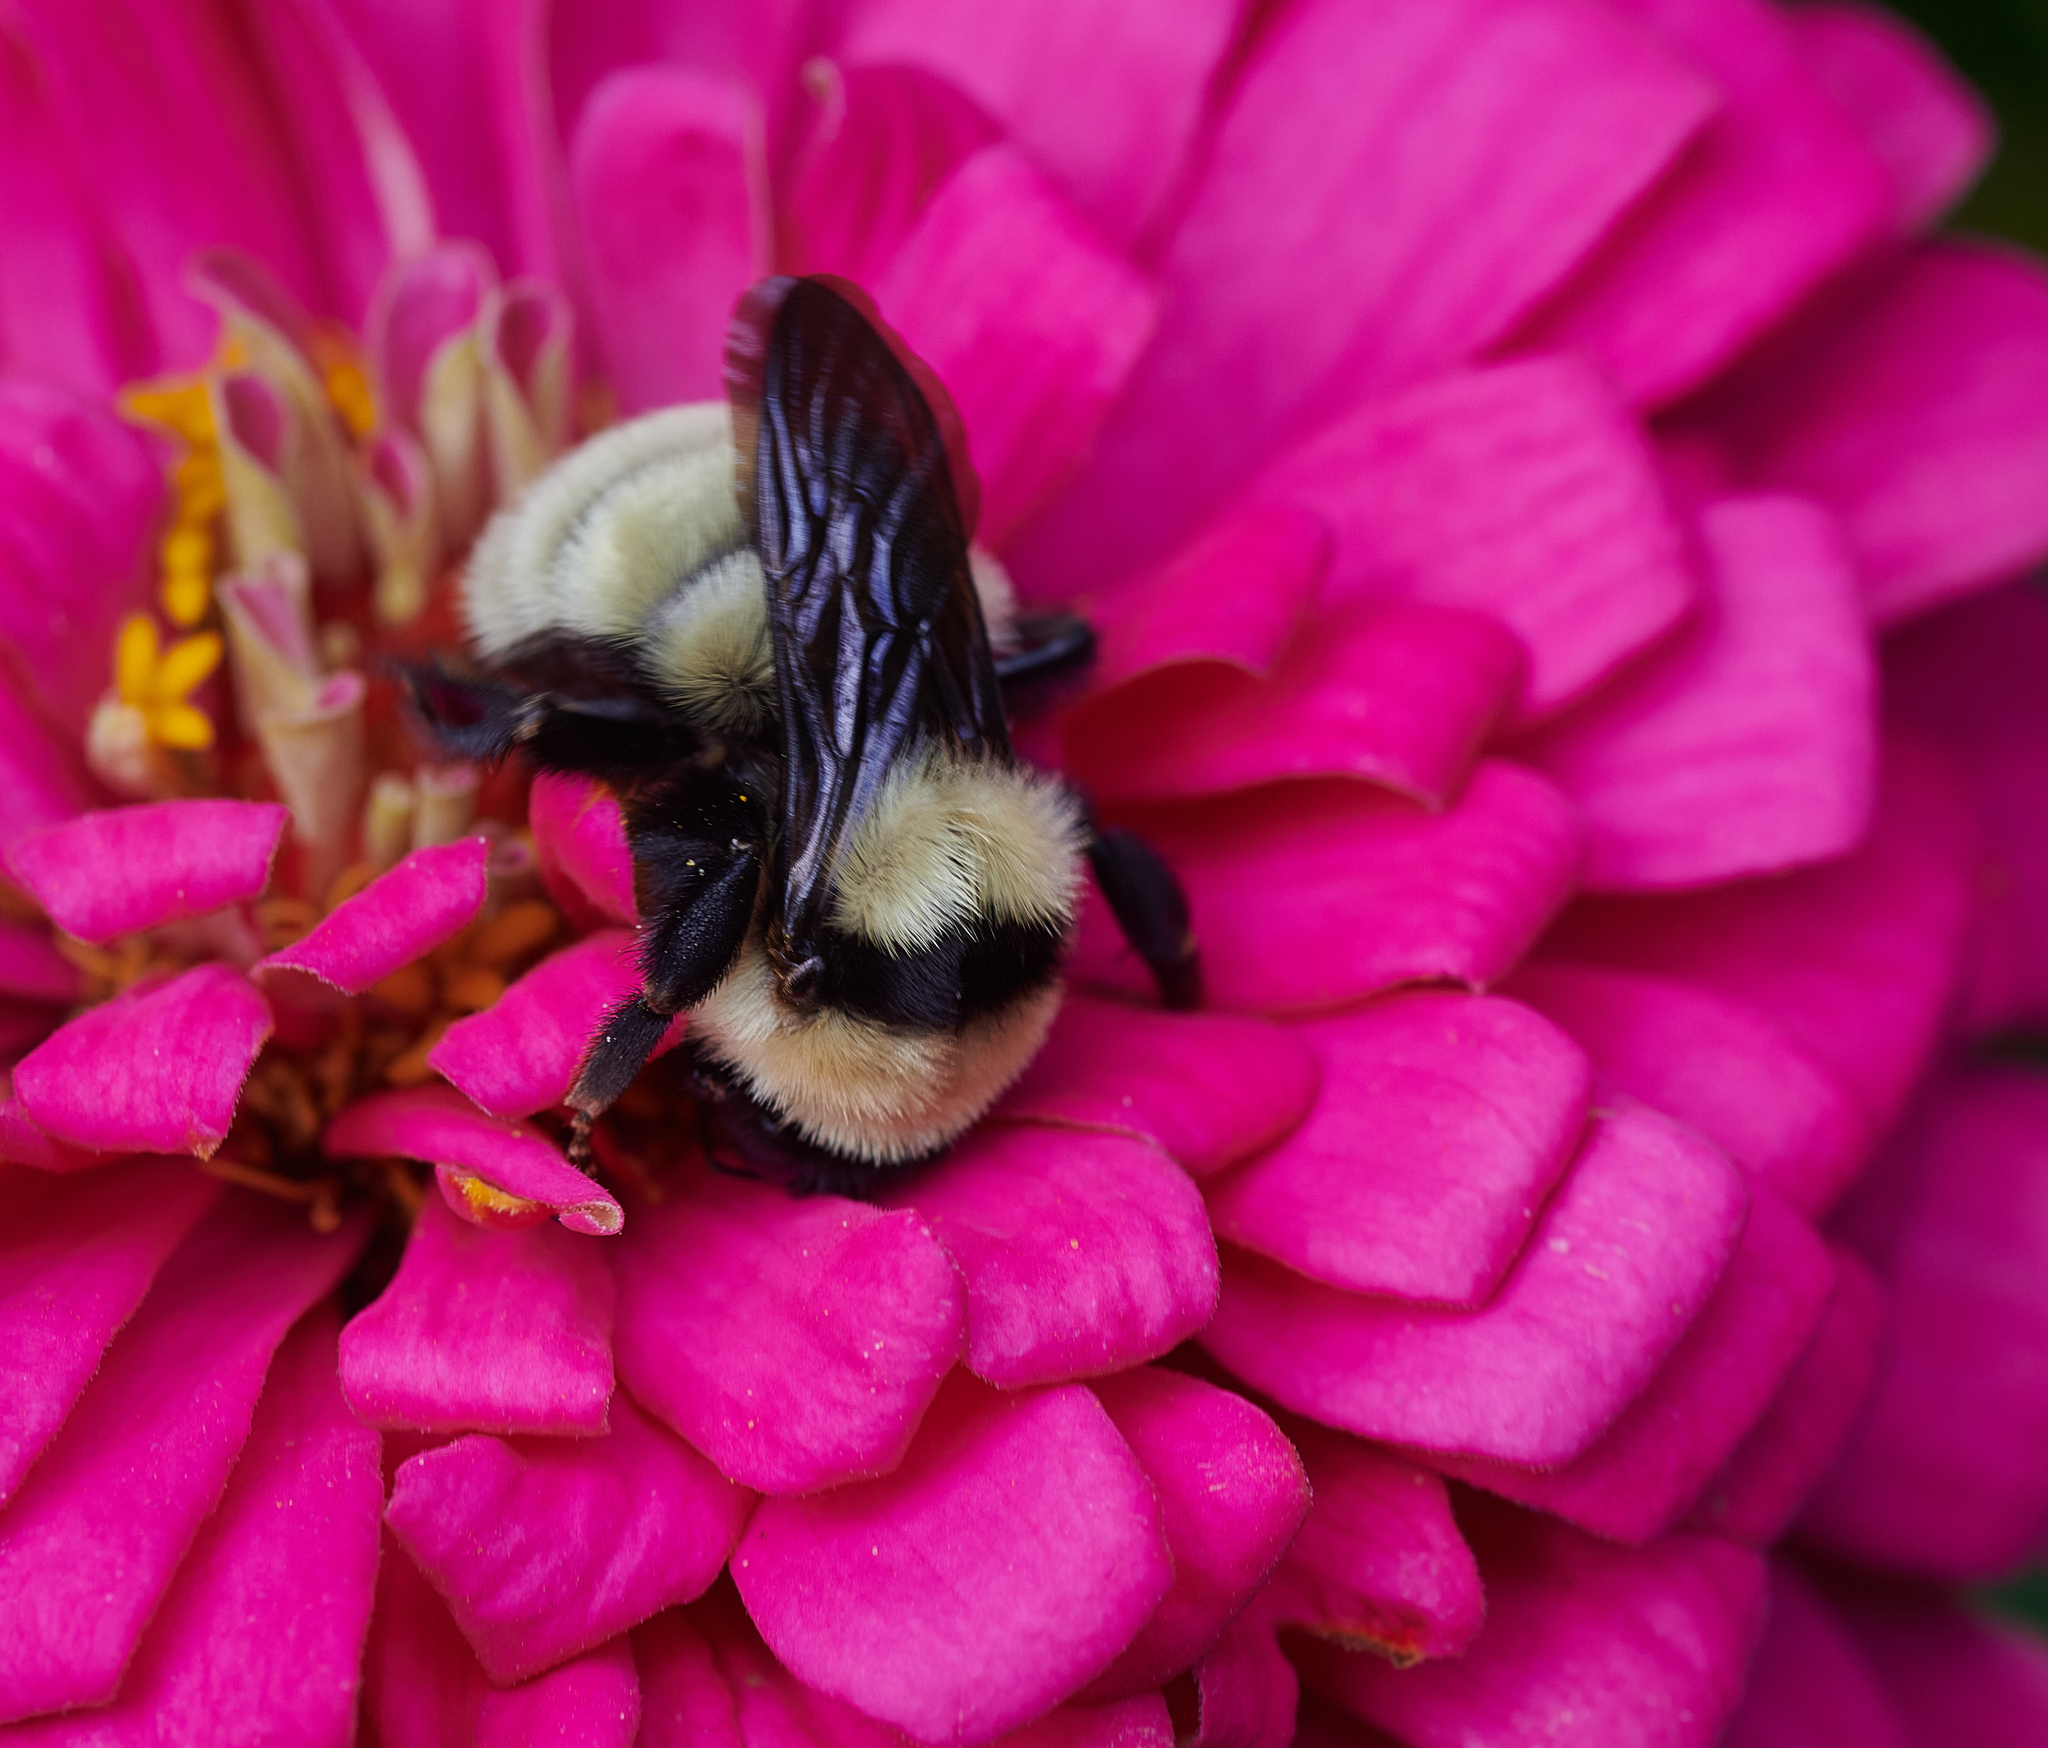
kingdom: Animalia
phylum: Arthropoda
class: Insecta
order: Hymenoptera
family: Apidae
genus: Bombus
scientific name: Bombus fervidus
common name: Yellow bumble bee
